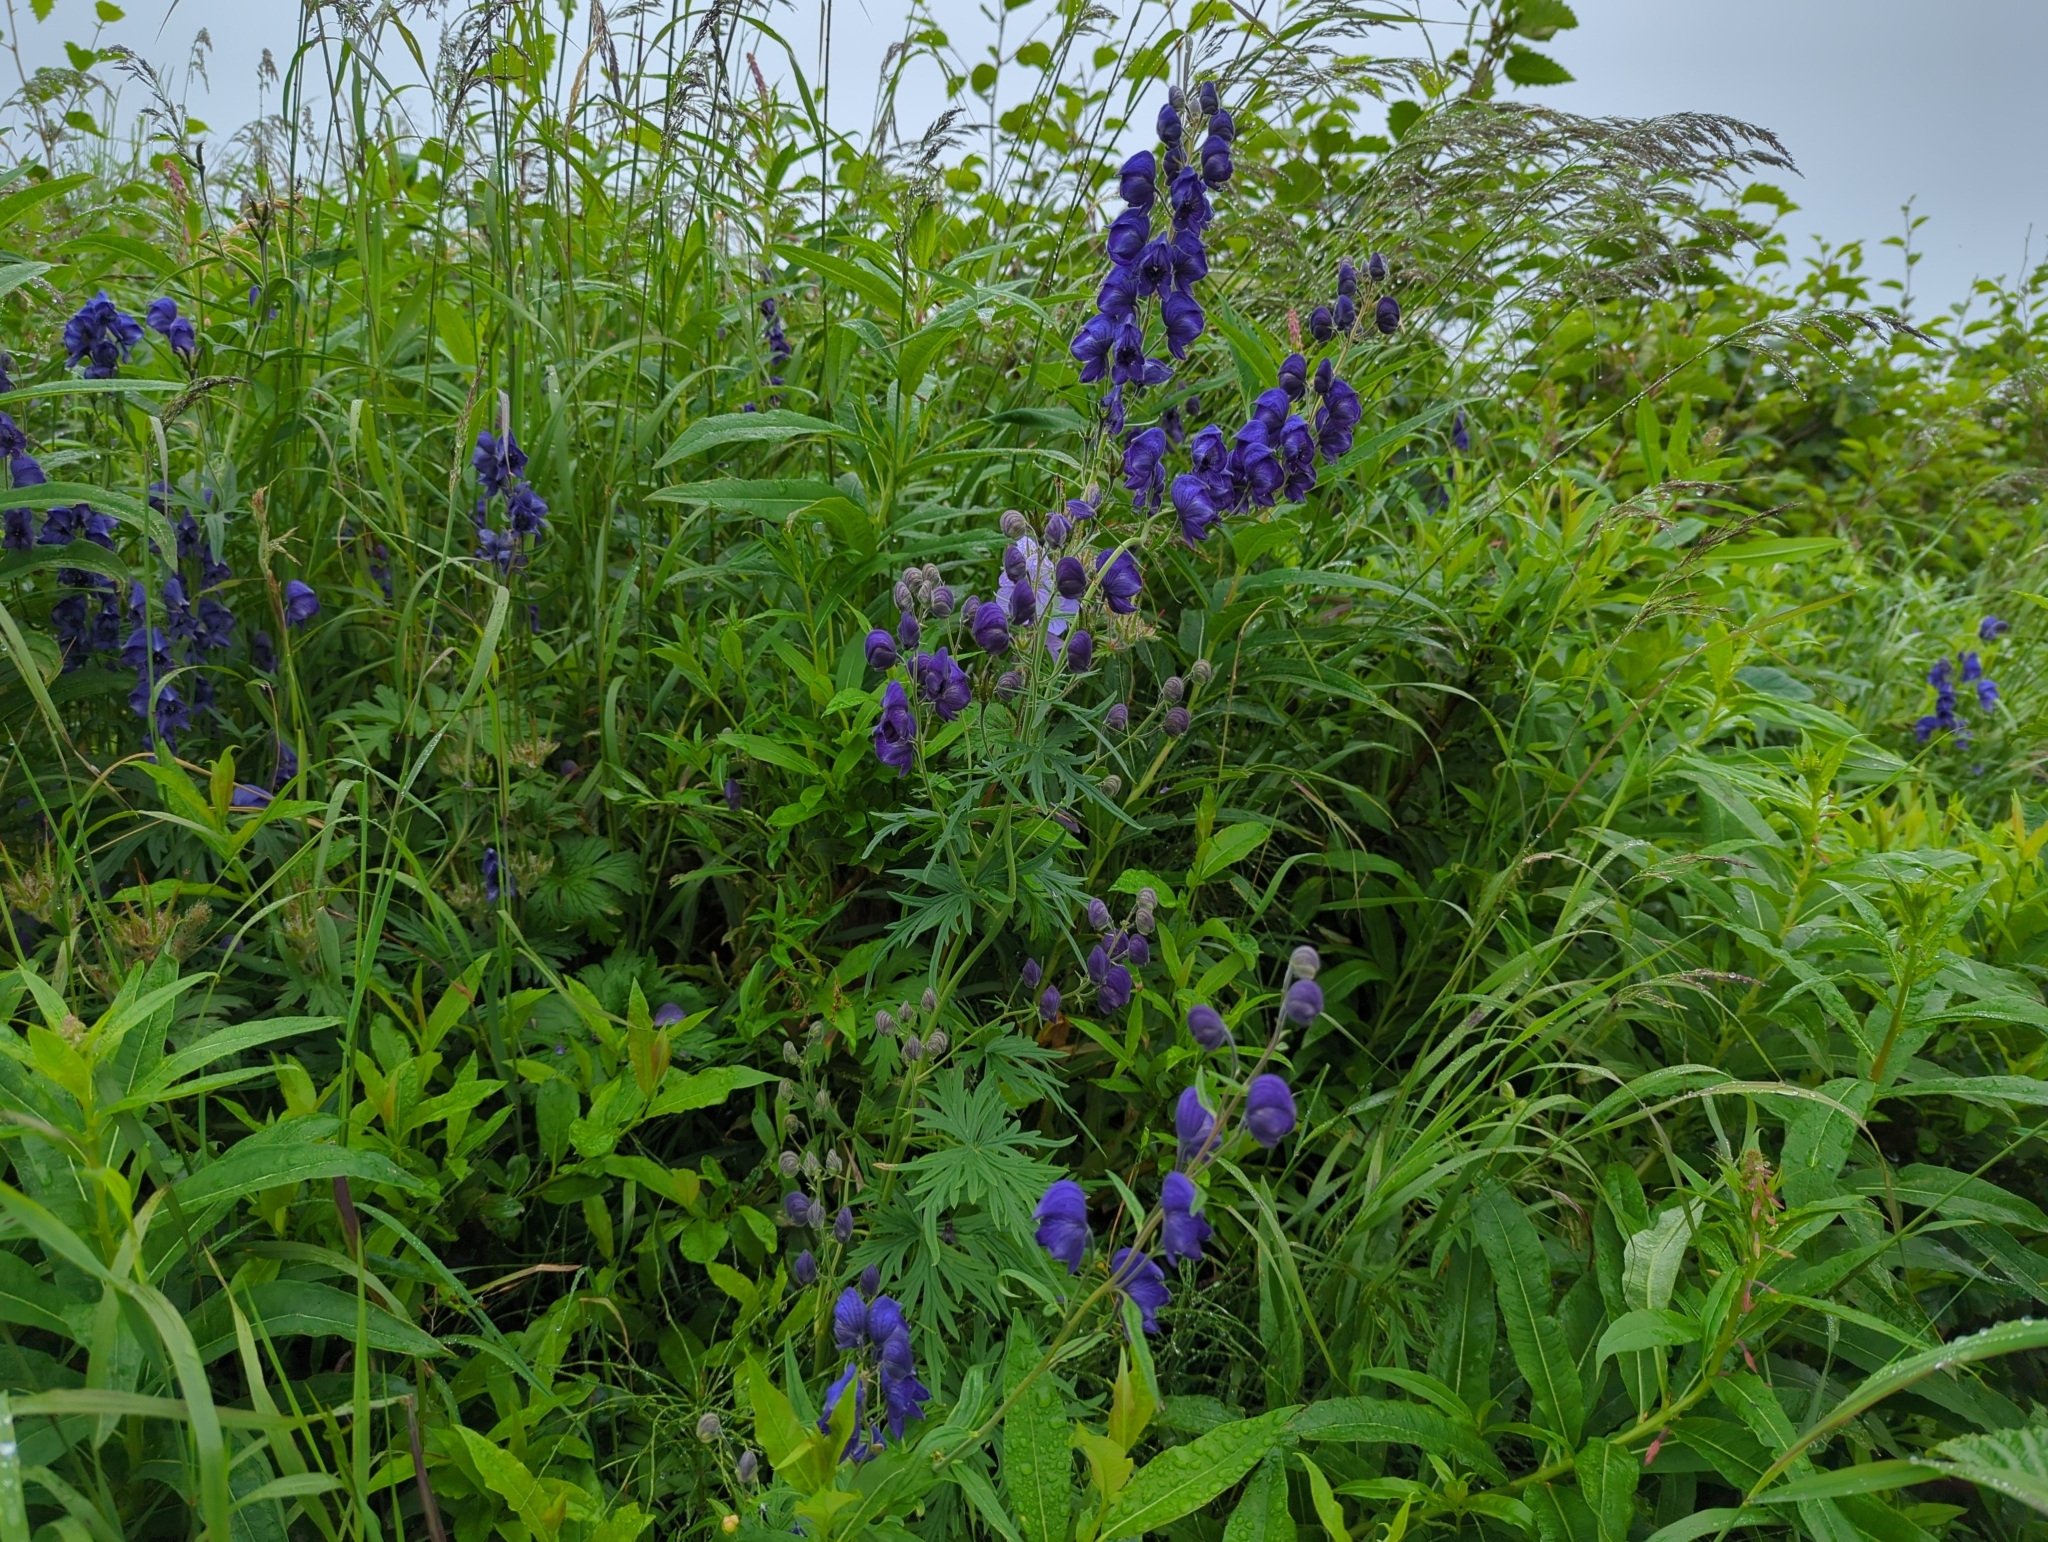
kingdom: Plantae
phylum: Tracheophyta
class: Magnoliopsida
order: Ranunculales
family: Ranunculaceae
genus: Aconitum
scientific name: Aconitum delphiniifolium
